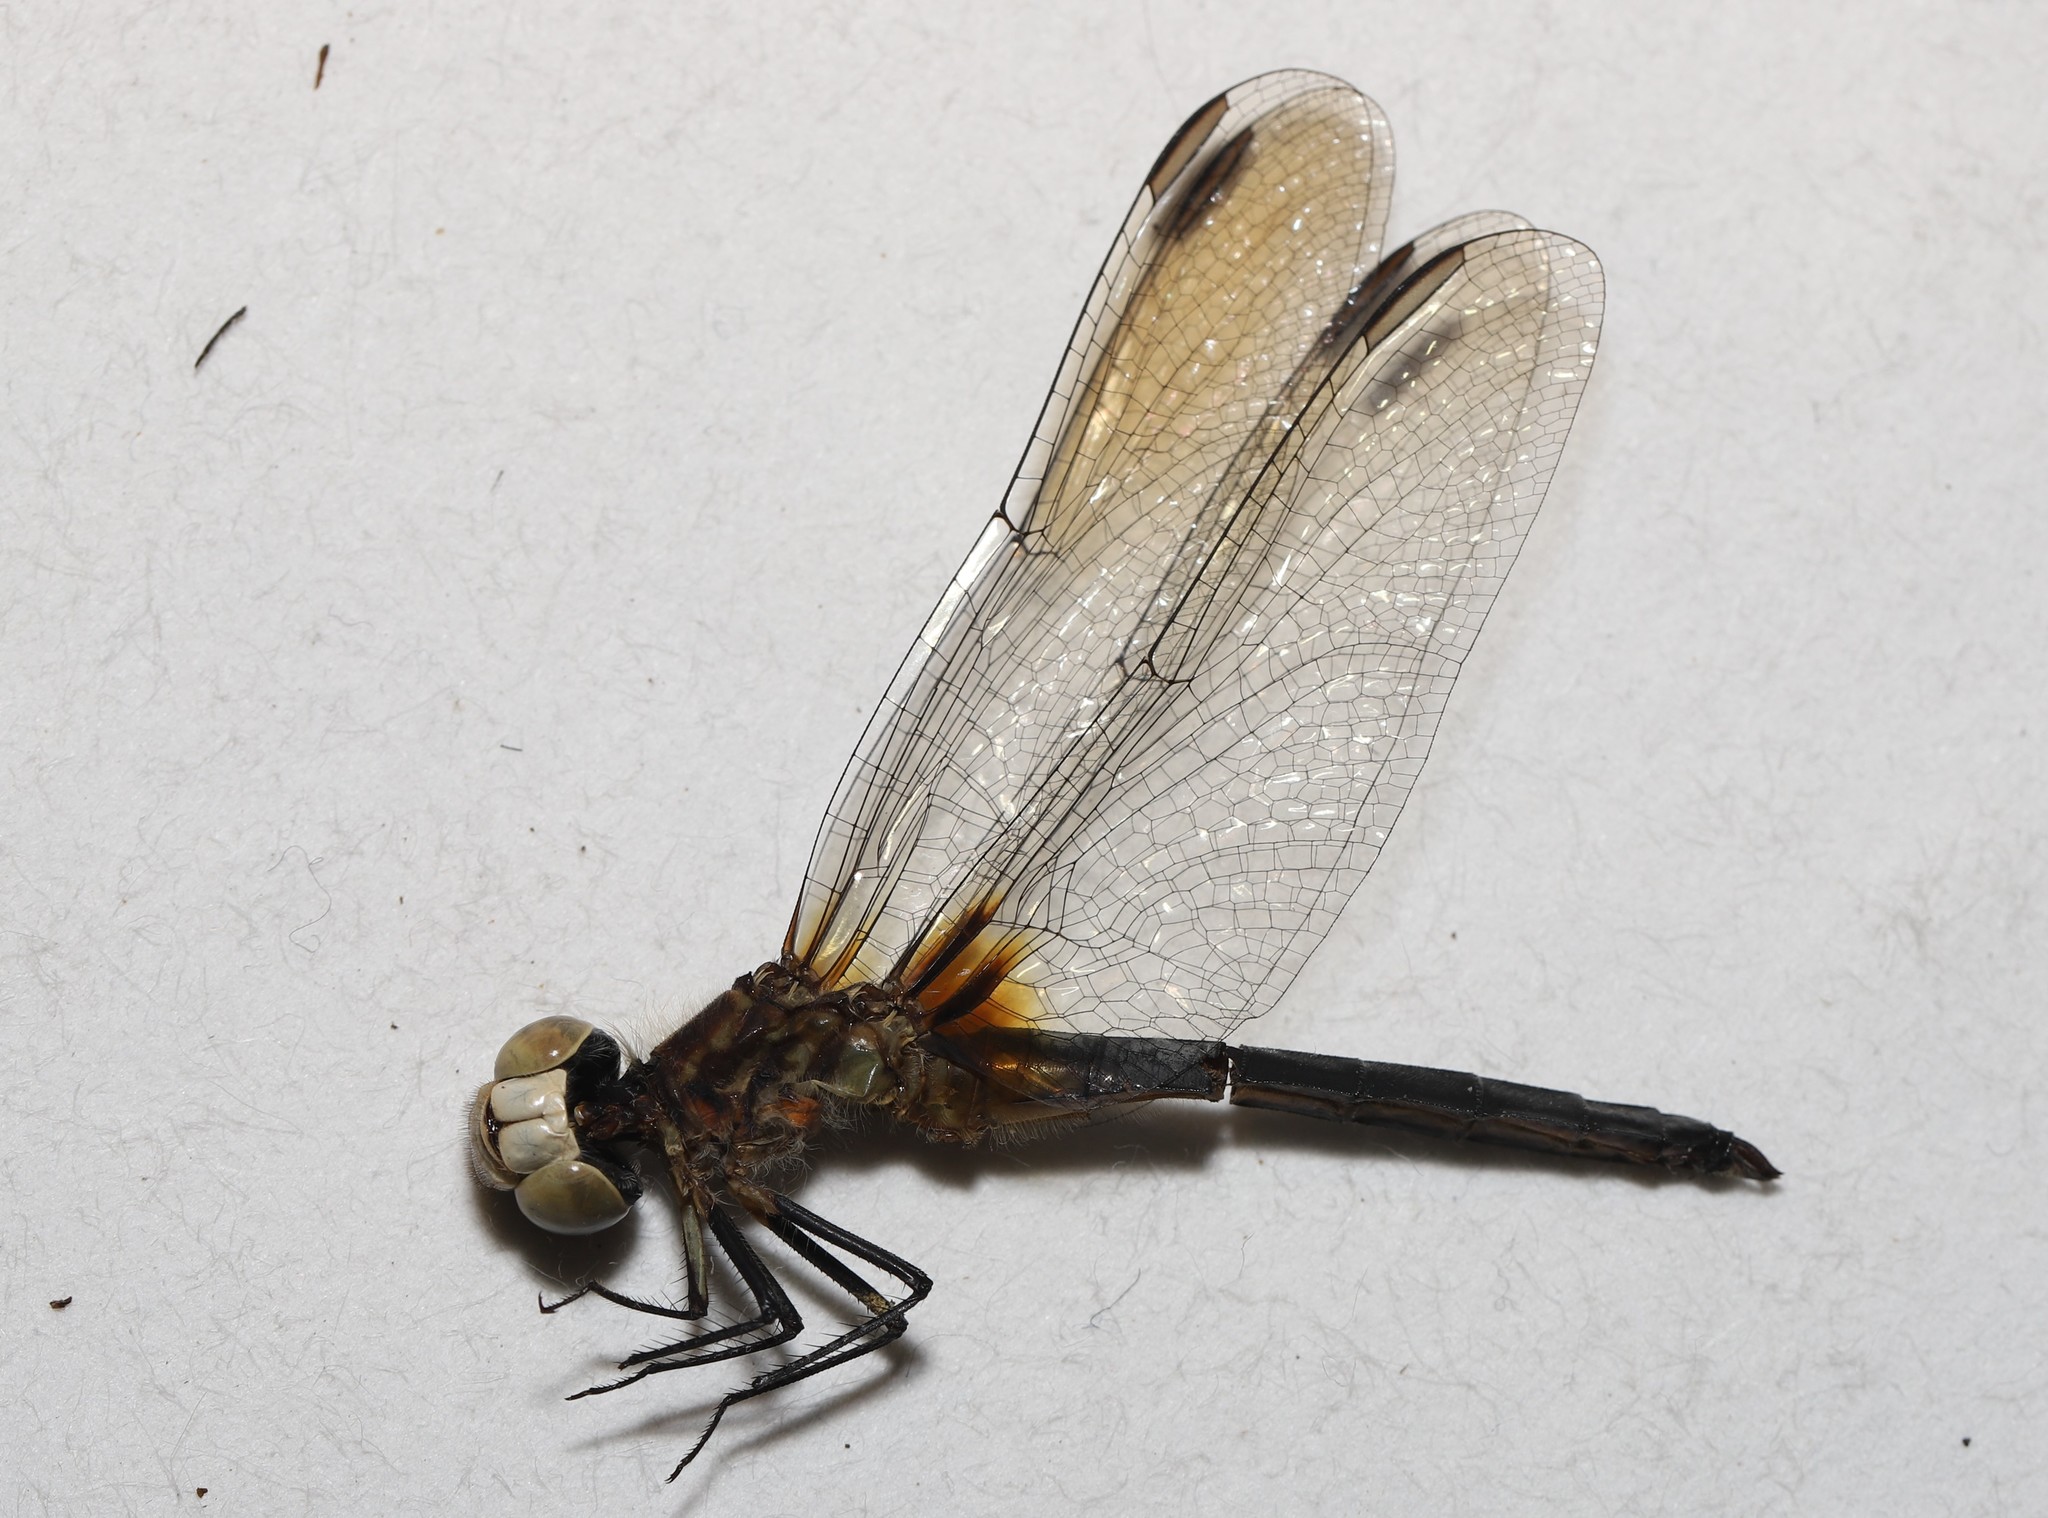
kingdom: Animalia
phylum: Arthropoda
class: Insecta
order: Odonata
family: Libellulidae
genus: Pachydiplax
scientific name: Pachydiplax longipennis
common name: Blue dasher
